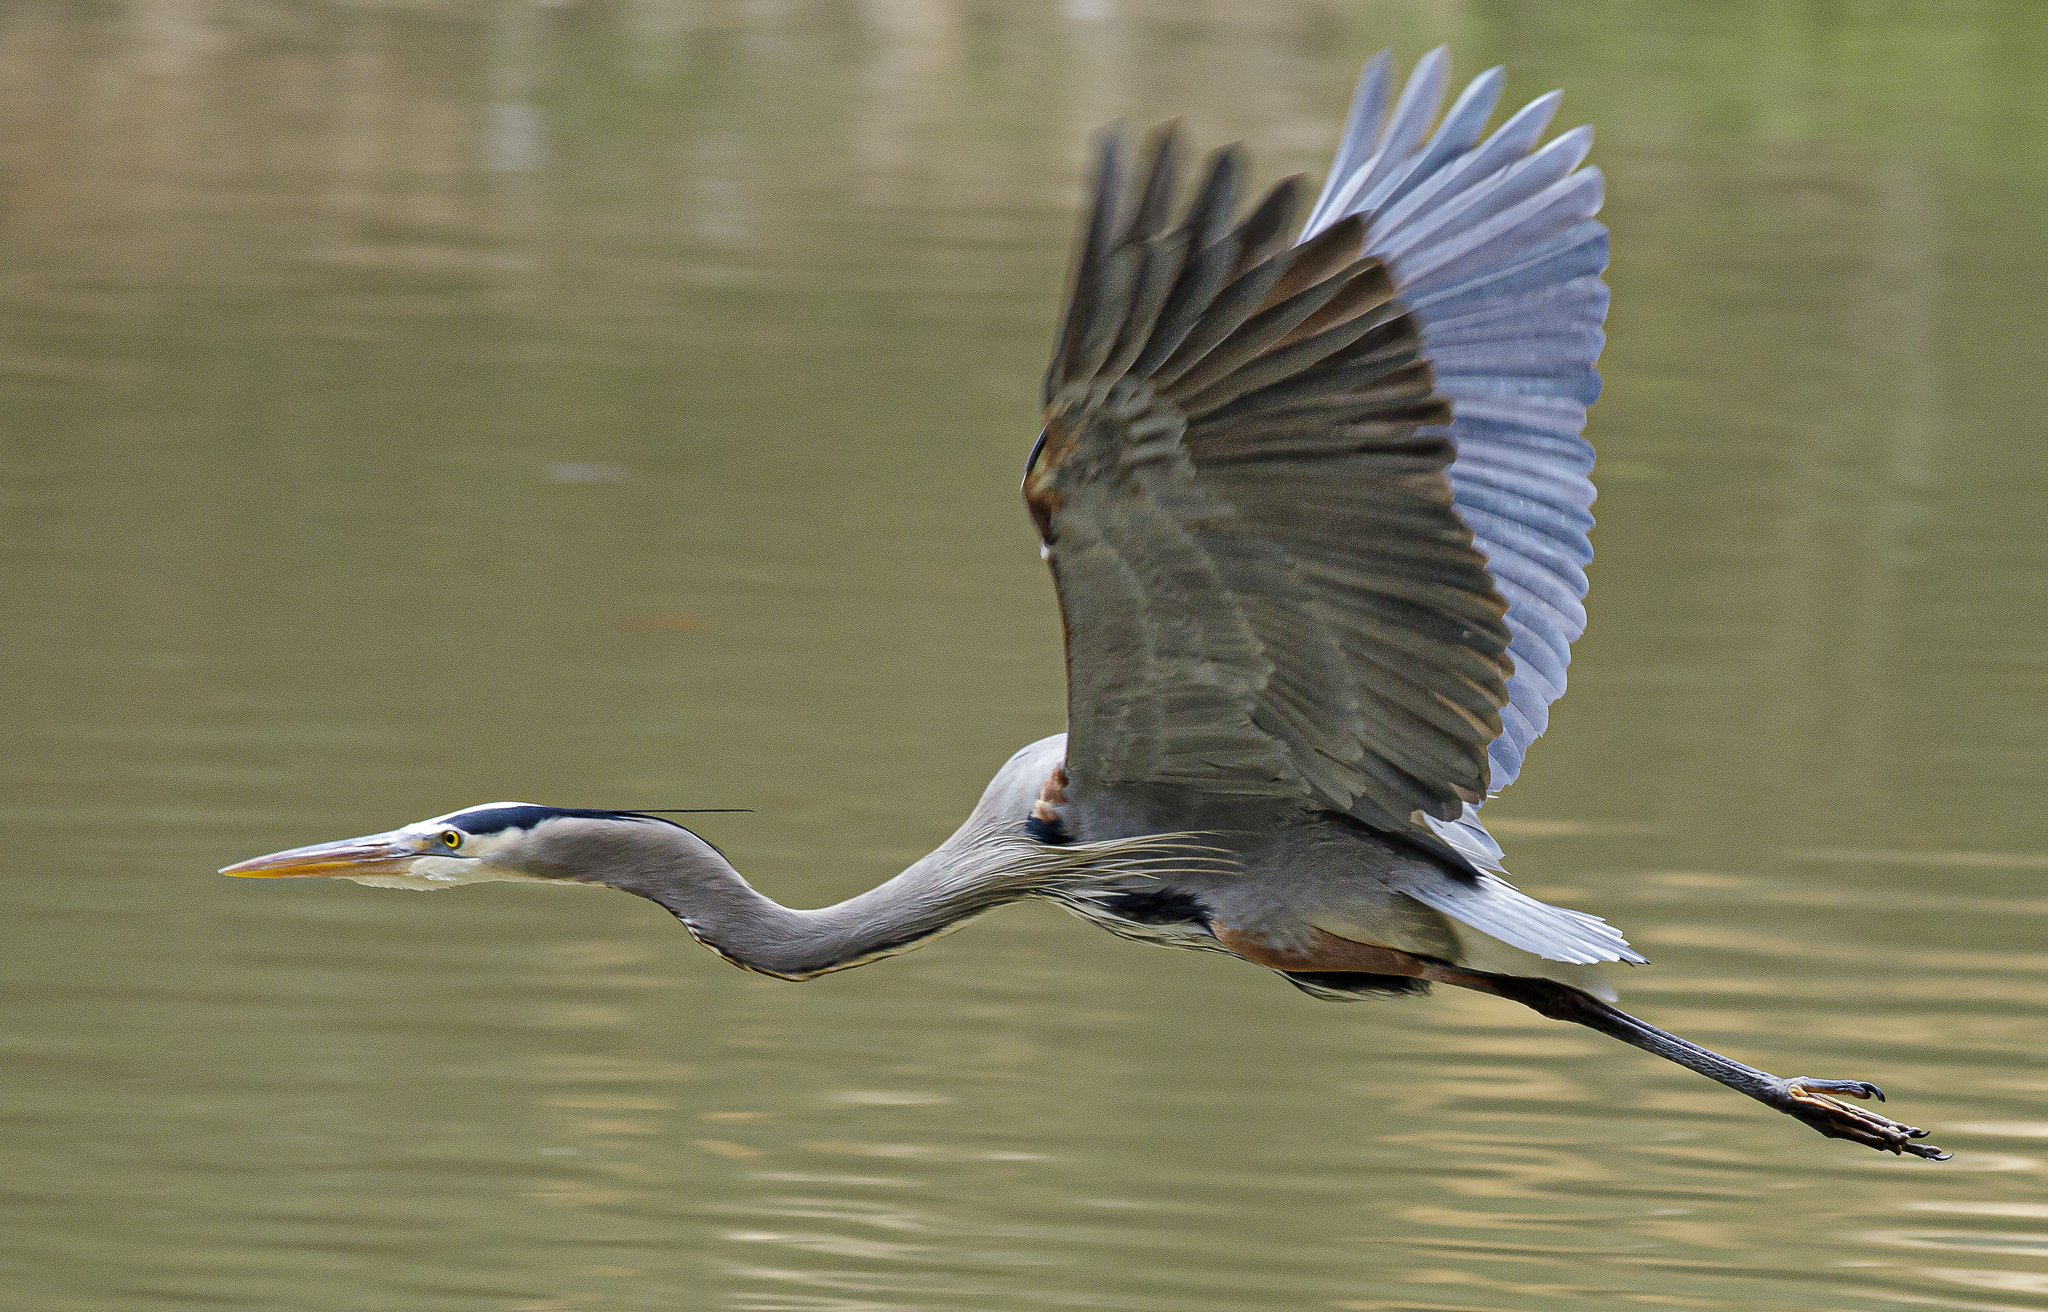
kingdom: Animalia
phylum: Chordata
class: Aves
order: Pelecaniformes
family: Ardeidae
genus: Ardea
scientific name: Ardea herodias
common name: Great blue heron
